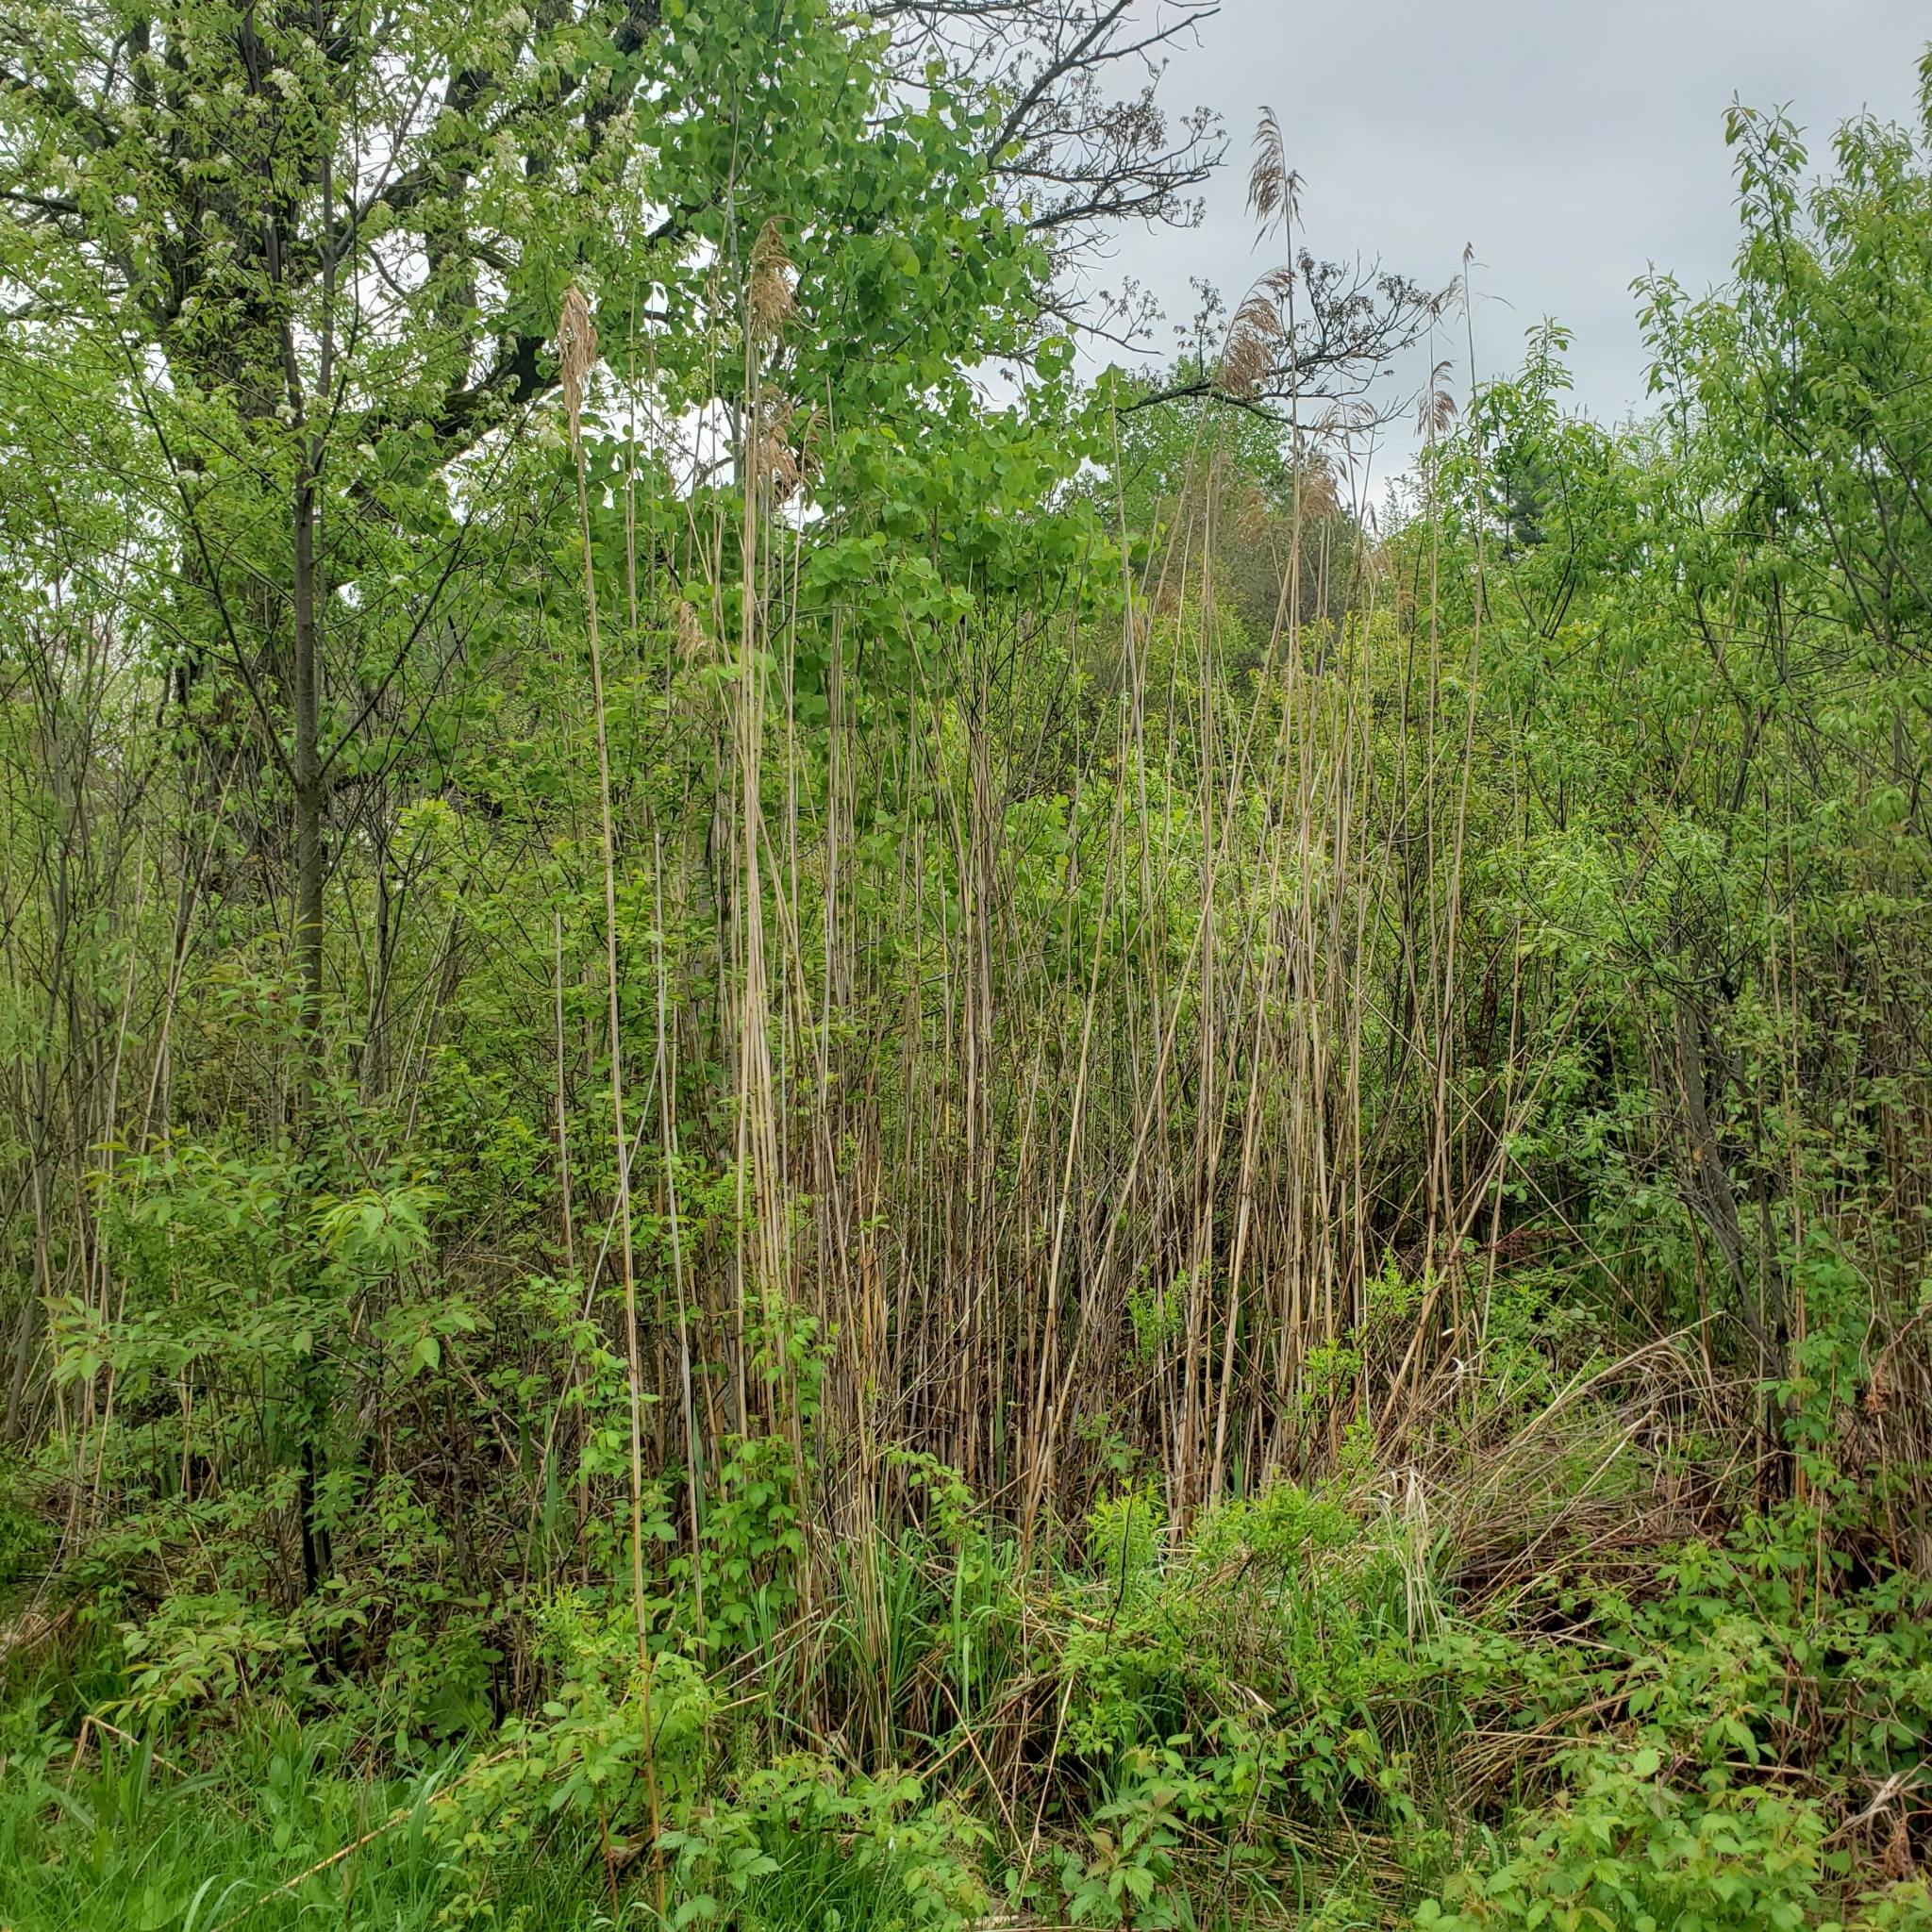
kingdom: Plantae
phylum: Tracheophyta
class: Liliopsida
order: Poales
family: Poaceae
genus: Phragmites
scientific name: Phragmites australis
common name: Common reed
